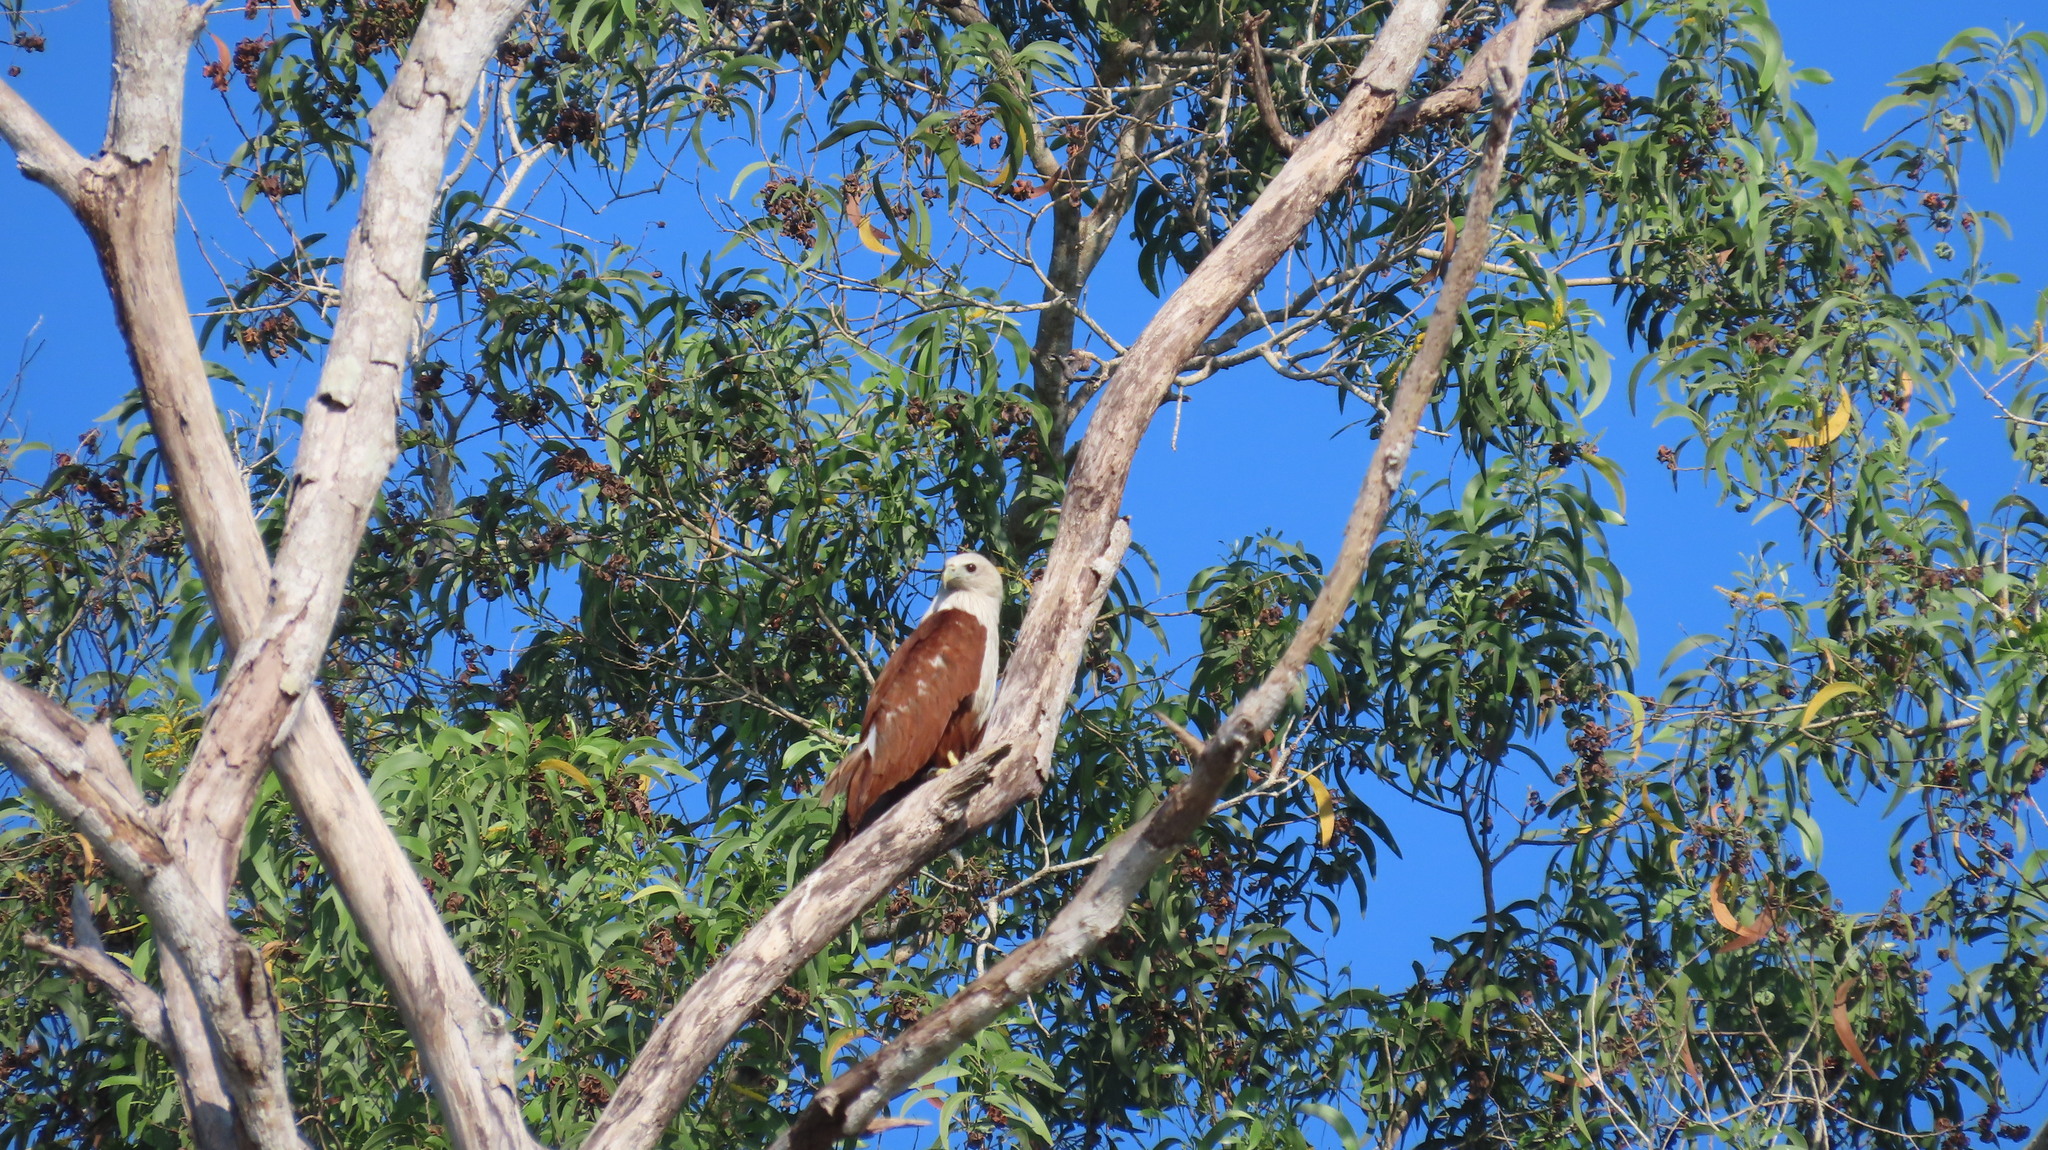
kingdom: Animalia
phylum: Chordata
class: Aves
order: Accipitriformes
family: Accipitridae
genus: Haliastur
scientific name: Haliastur indus
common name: Brahminy kite
